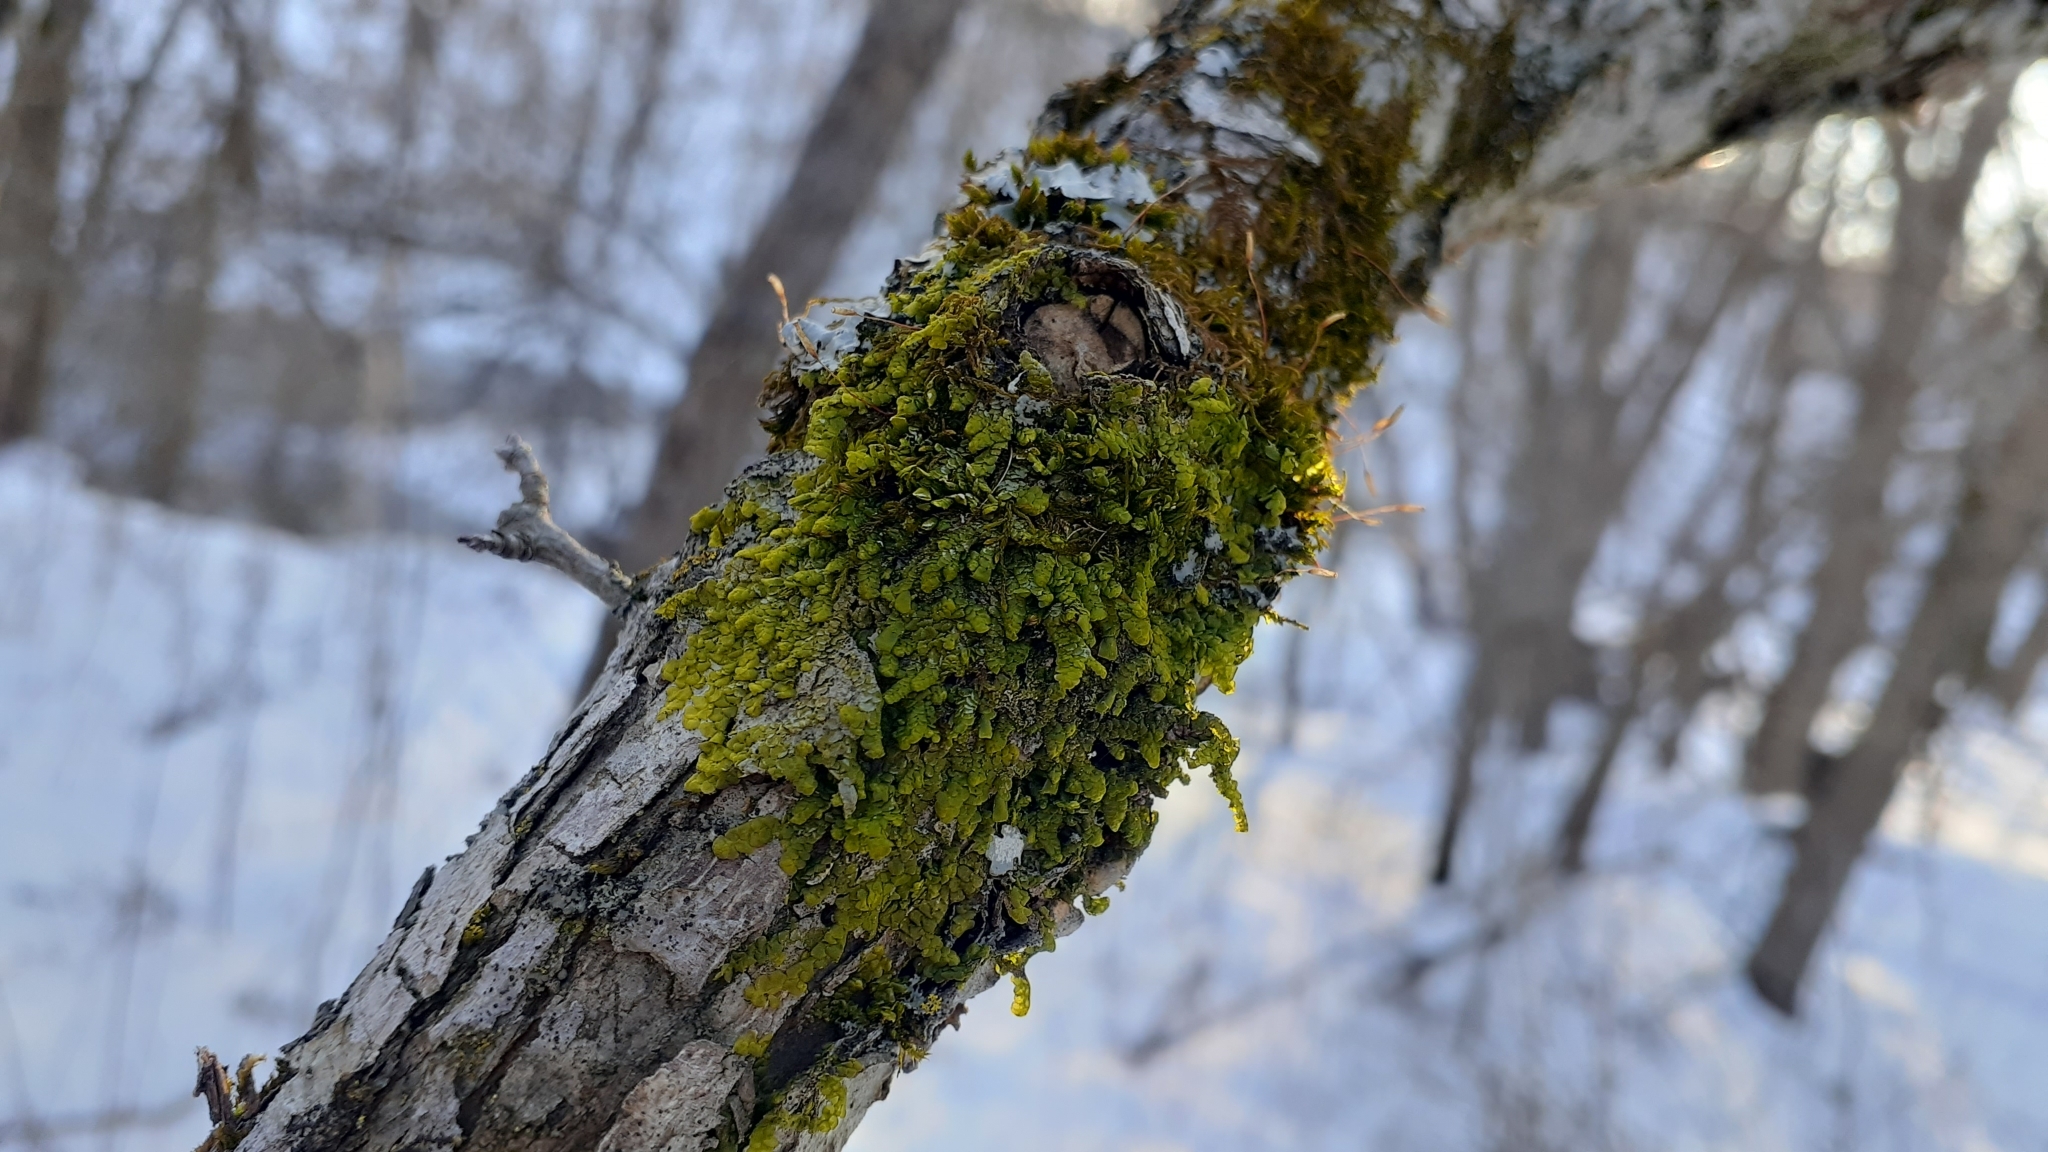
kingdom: Plantae
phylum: Marchantiophyta
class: Jungermanniopsida
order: Porellales
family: Radulaceae
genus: Radula
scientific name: Radula complanata
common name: Flat-leaved scalewort
